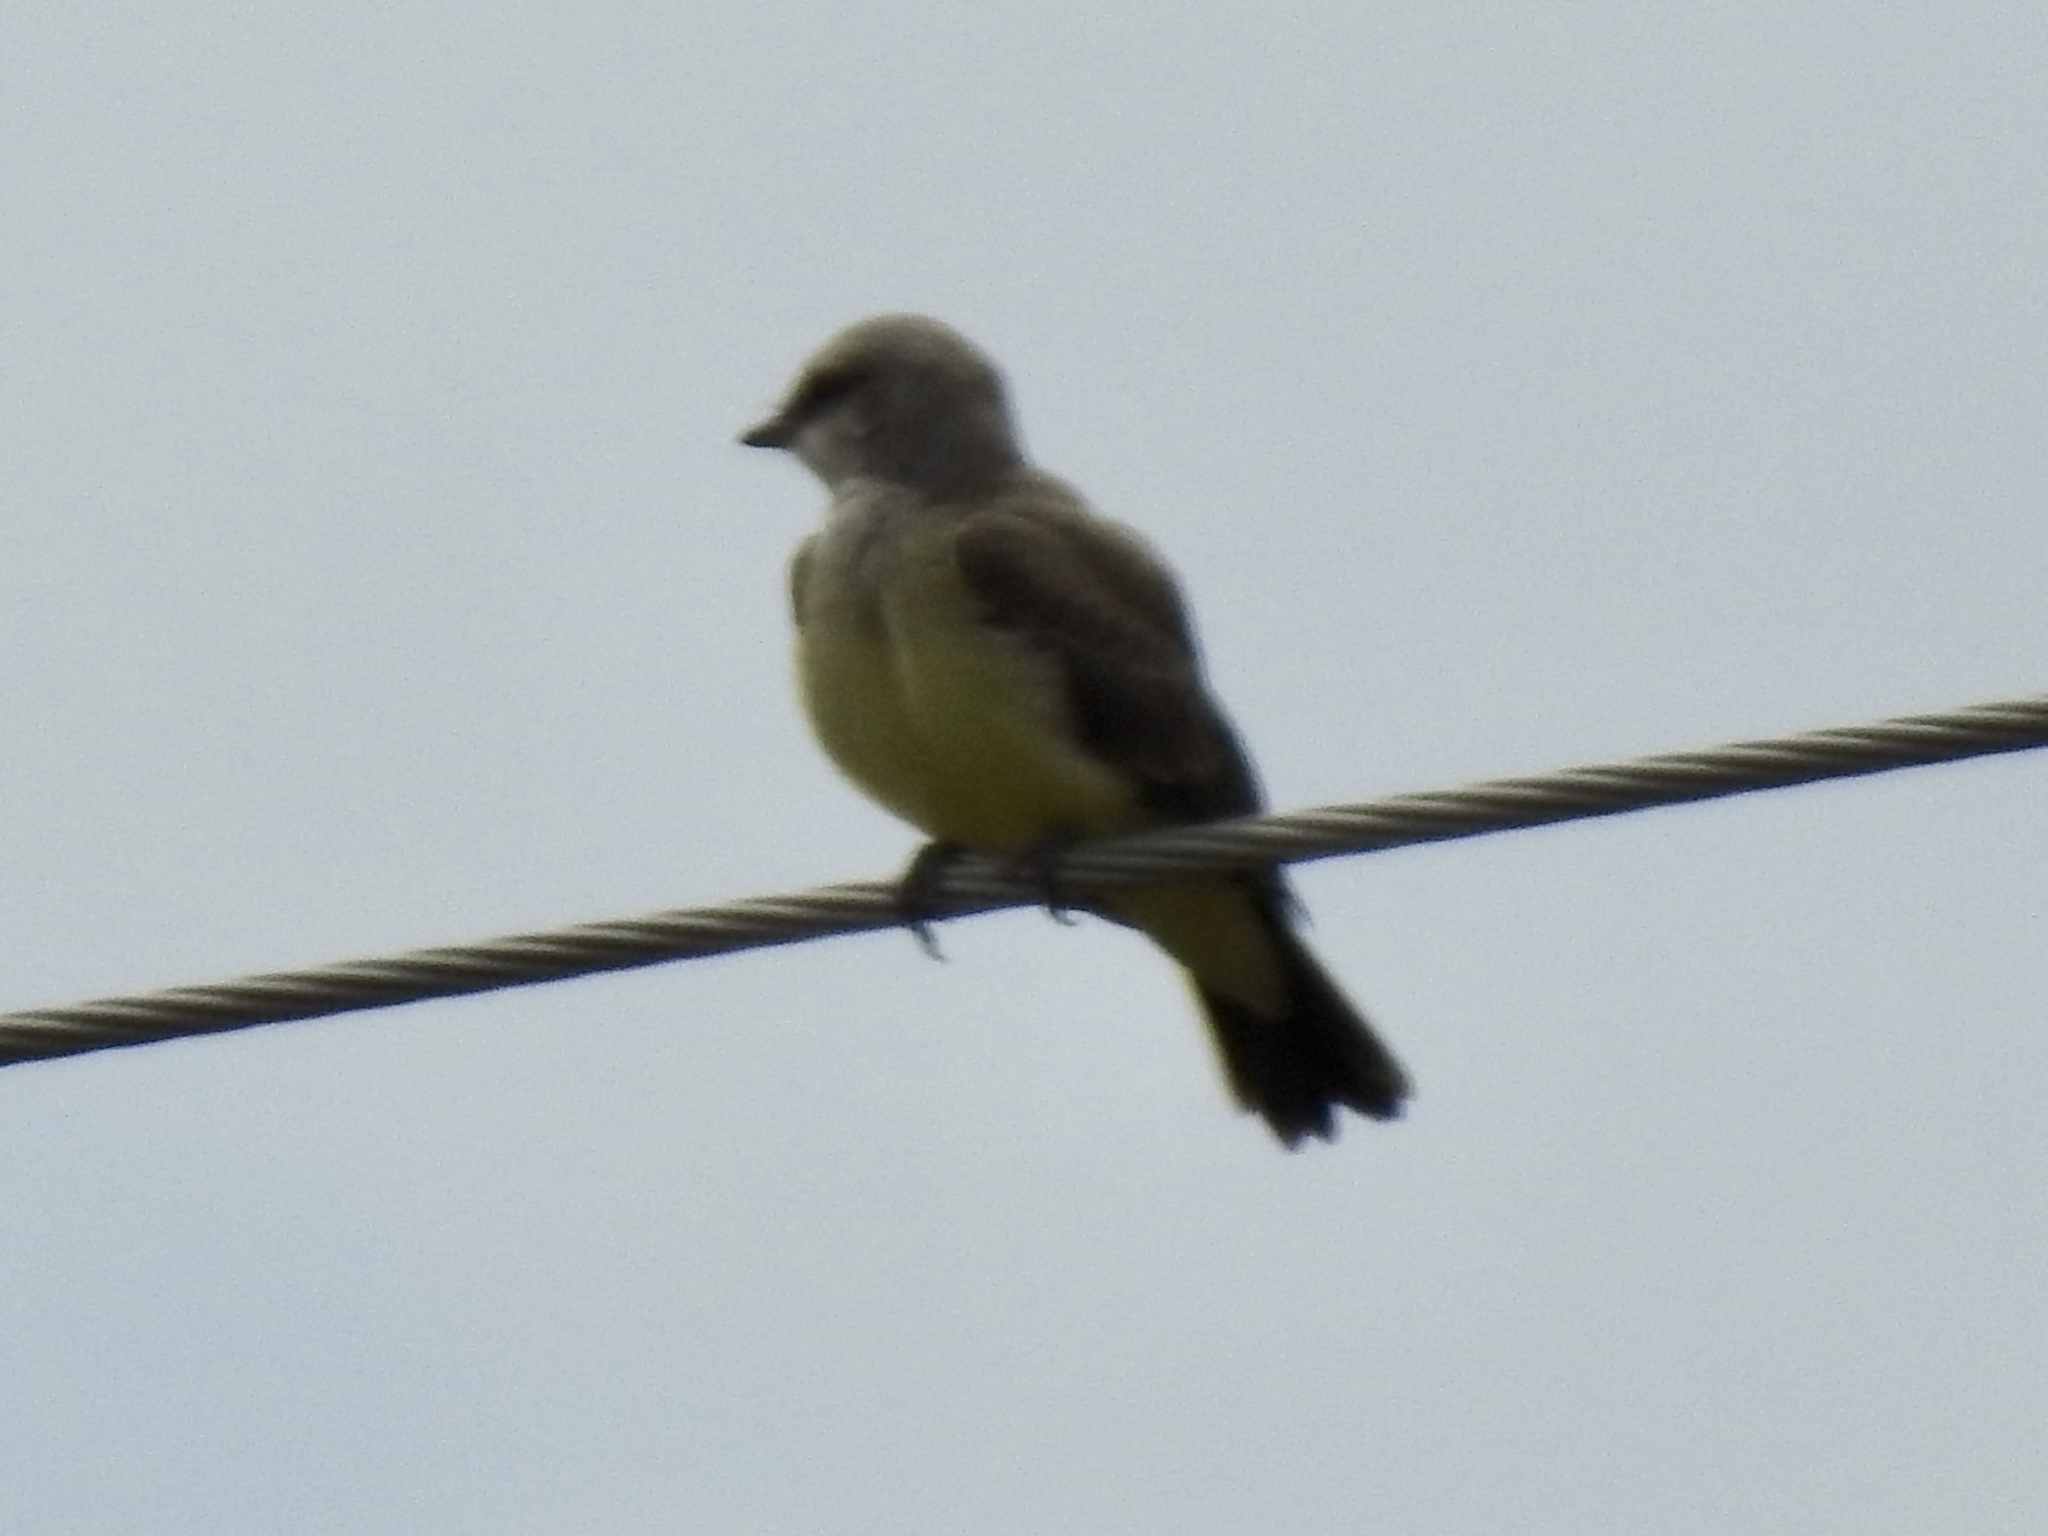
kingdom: Animalia
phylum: Chordata
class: Aves
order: Passeriformes
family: Tyrannidae
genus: Tyrannus
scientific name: Tyrannus verticalis
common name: Western kingbird
